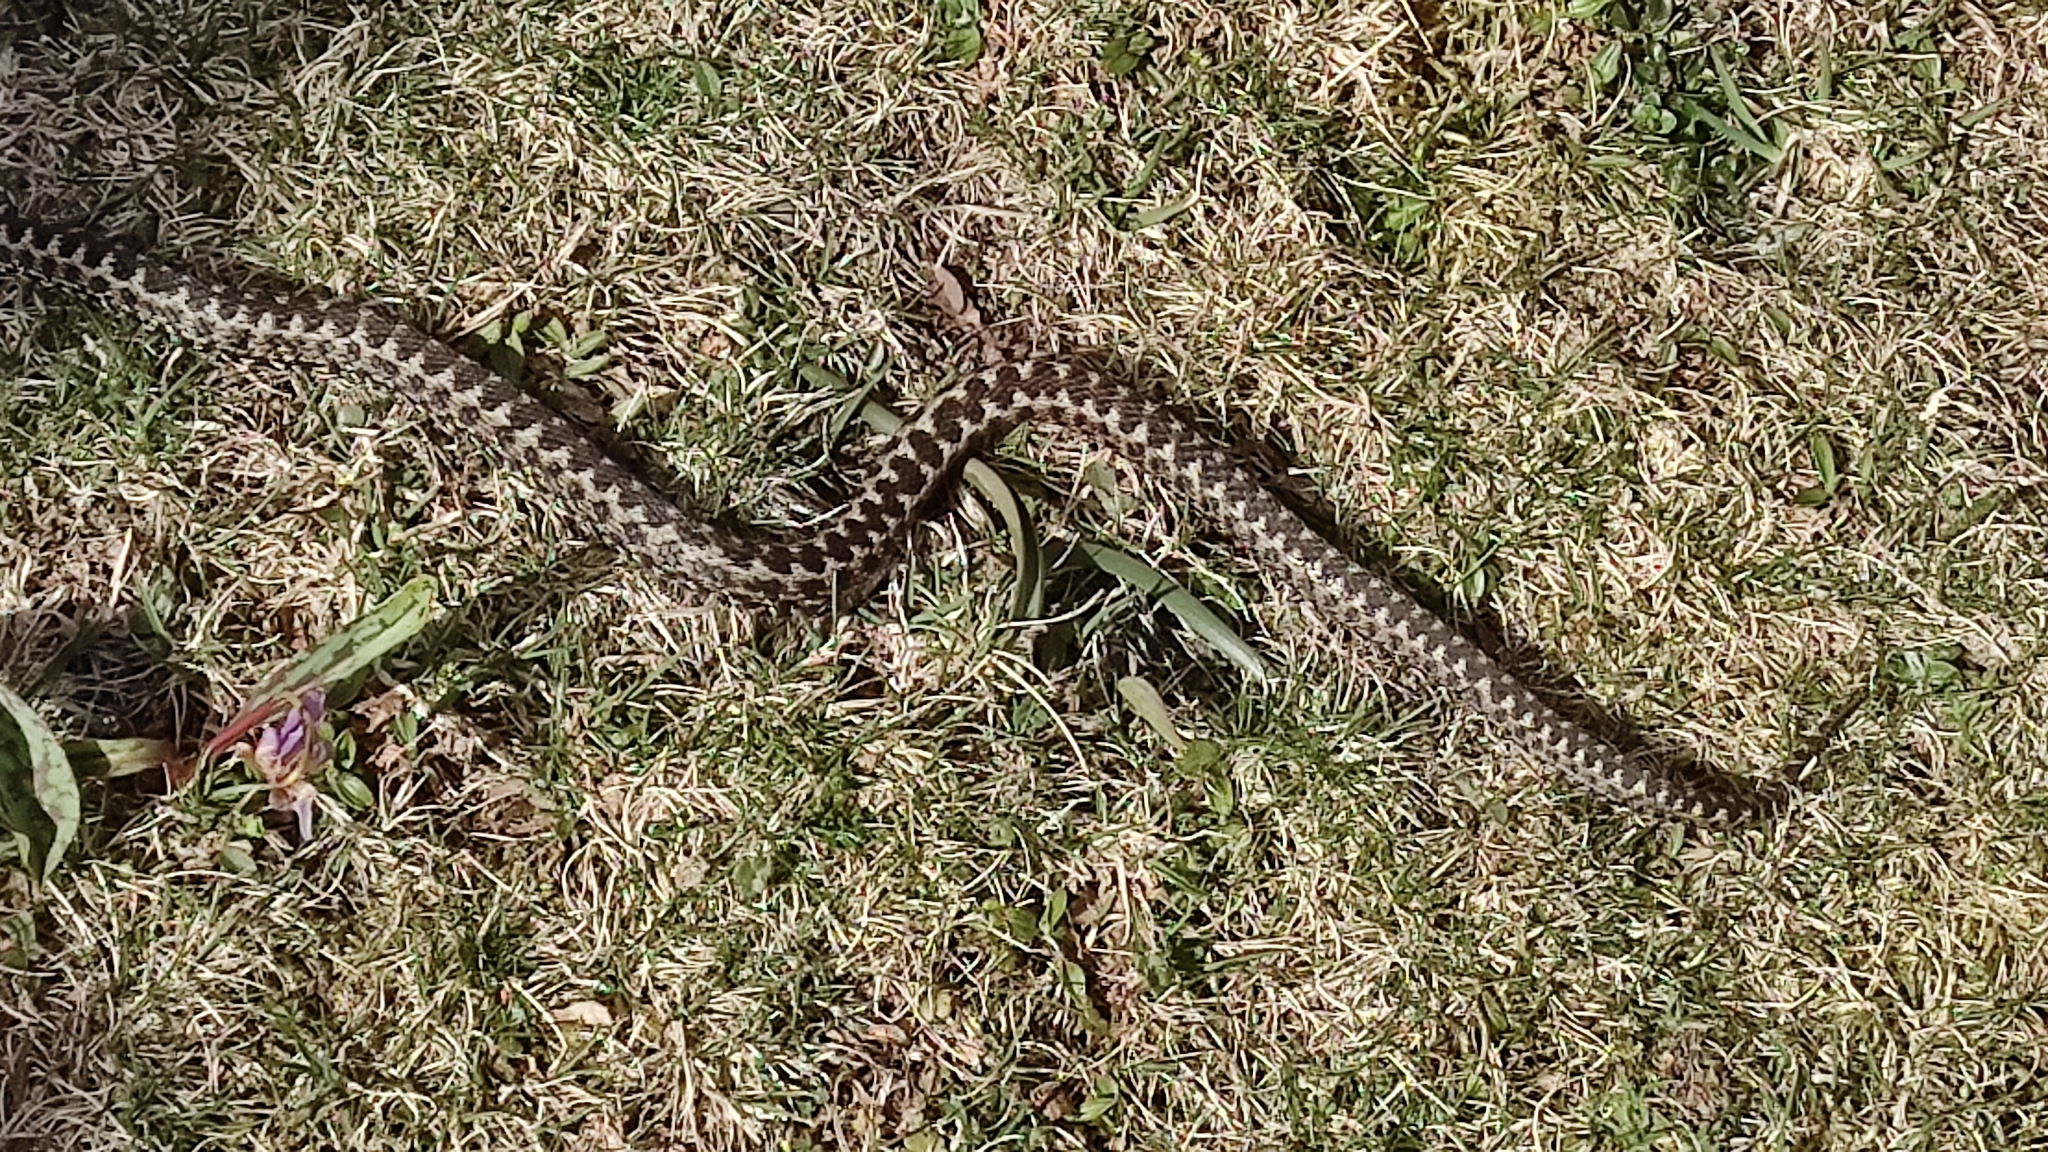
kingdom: Animalia
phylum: Chordata
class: Squamata
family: Viperidae
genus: Vipera
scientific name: Vipera seoanei
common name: Portugese viper
